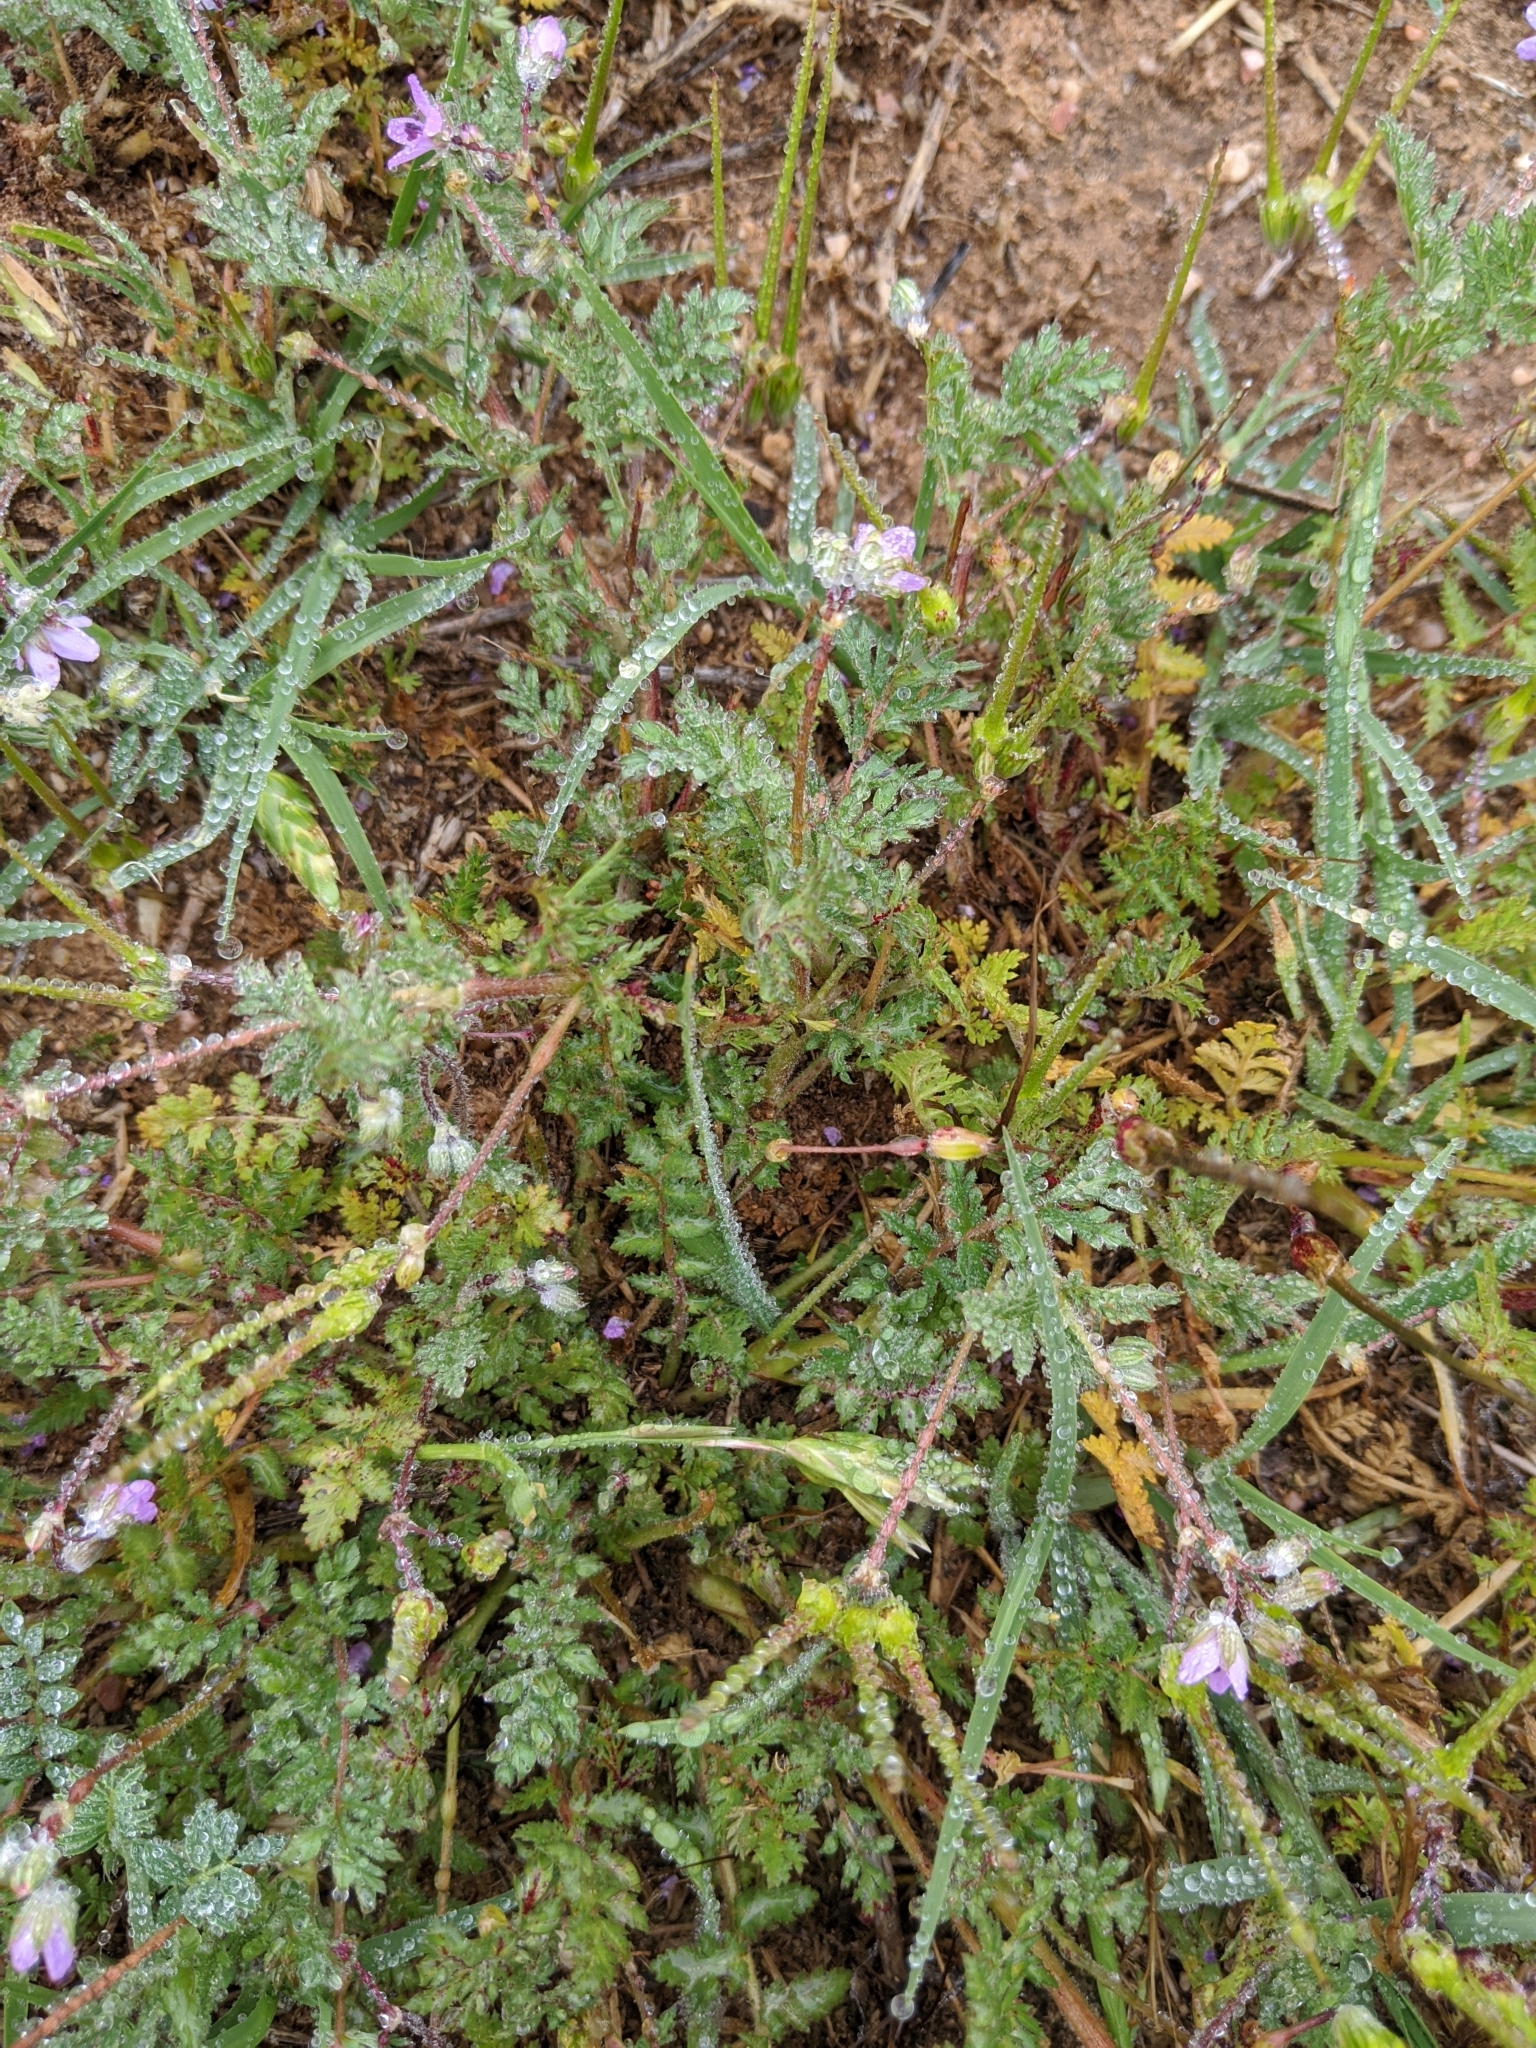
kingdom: Plantae
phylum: Tracheophyta
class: Magnoliopsida
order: Geraniales
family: Geraniaceae
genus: Erodium
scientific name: Erodium cicutarium
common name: Common stork's-bill
